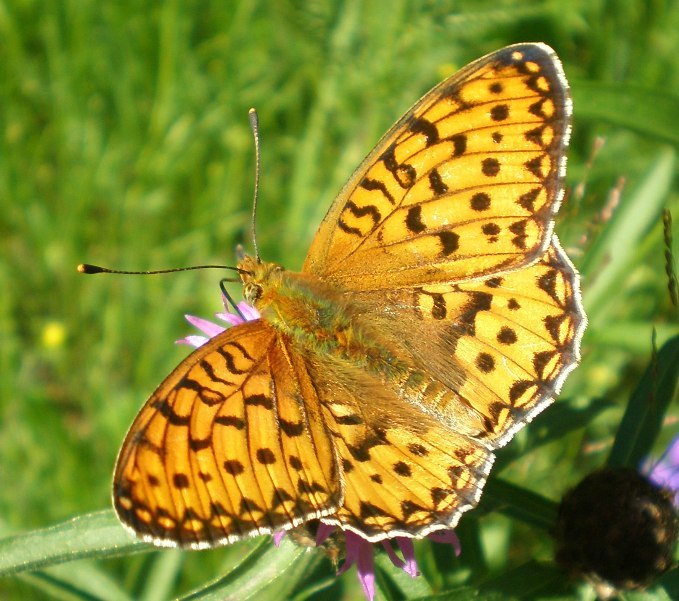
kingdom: Animalia
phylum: Arthropoda
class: Insecta
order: Lepidoptera
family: Nymphalidae
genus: Speyeria
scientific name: Speyeria aglaja
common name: Dark green fritillary
